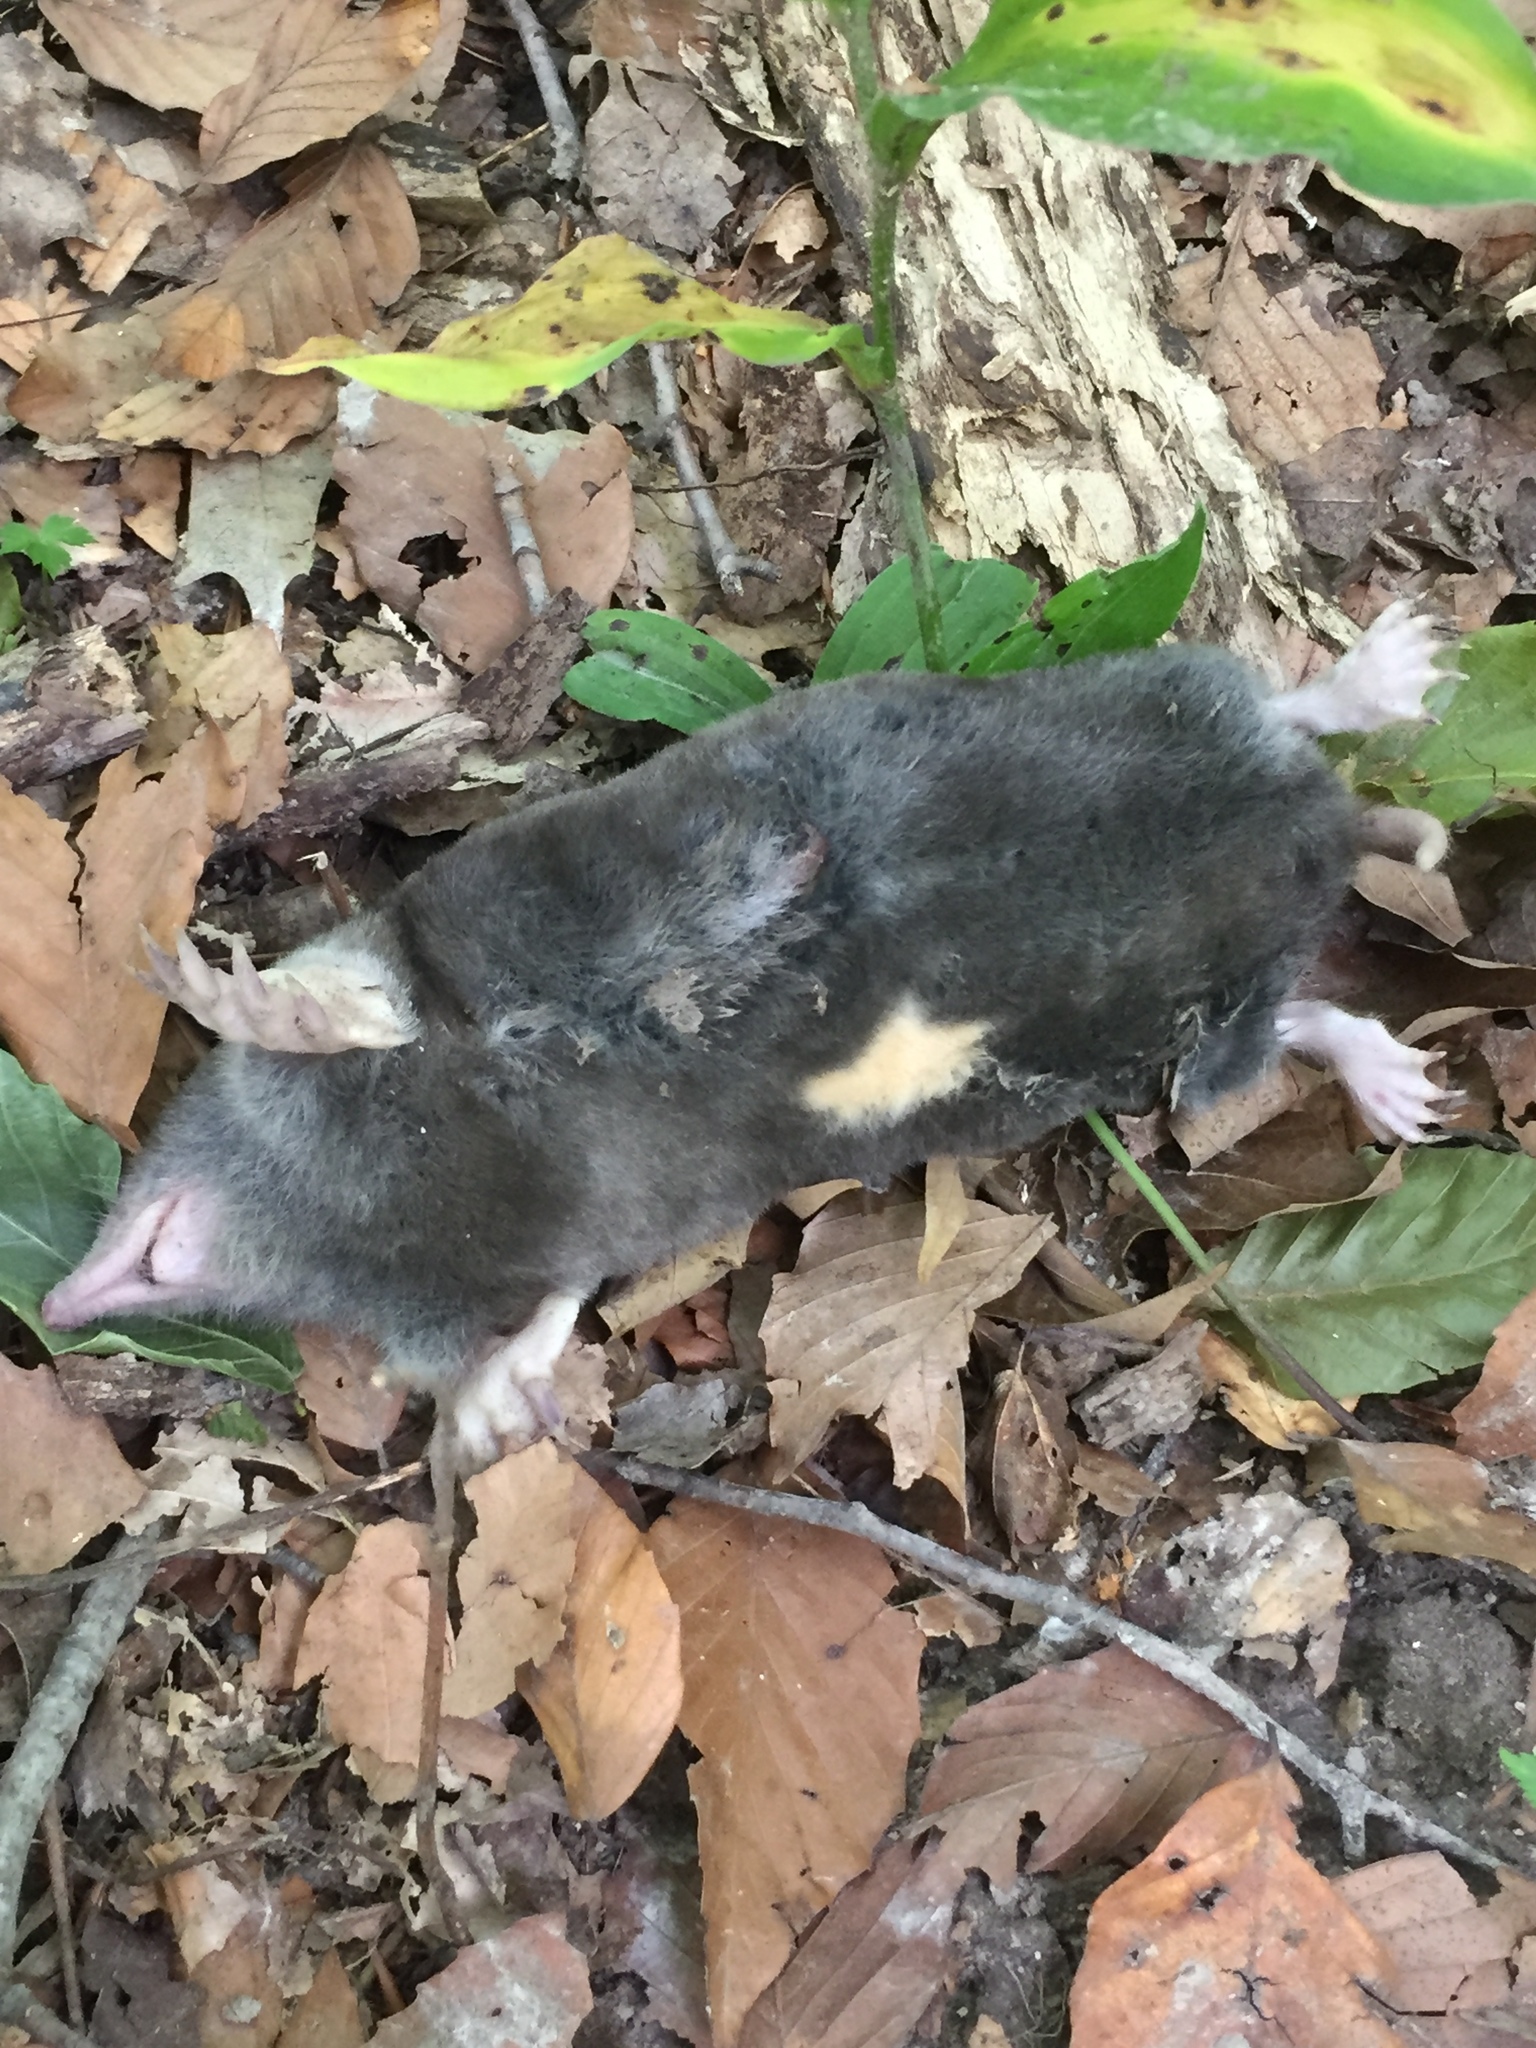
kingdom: Animalia
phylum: Chordata
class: Mammalia
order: Soricomorpha
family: Talpidae
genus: Scalopus
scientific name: Scalopus aquaticus
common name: Eastern mole
